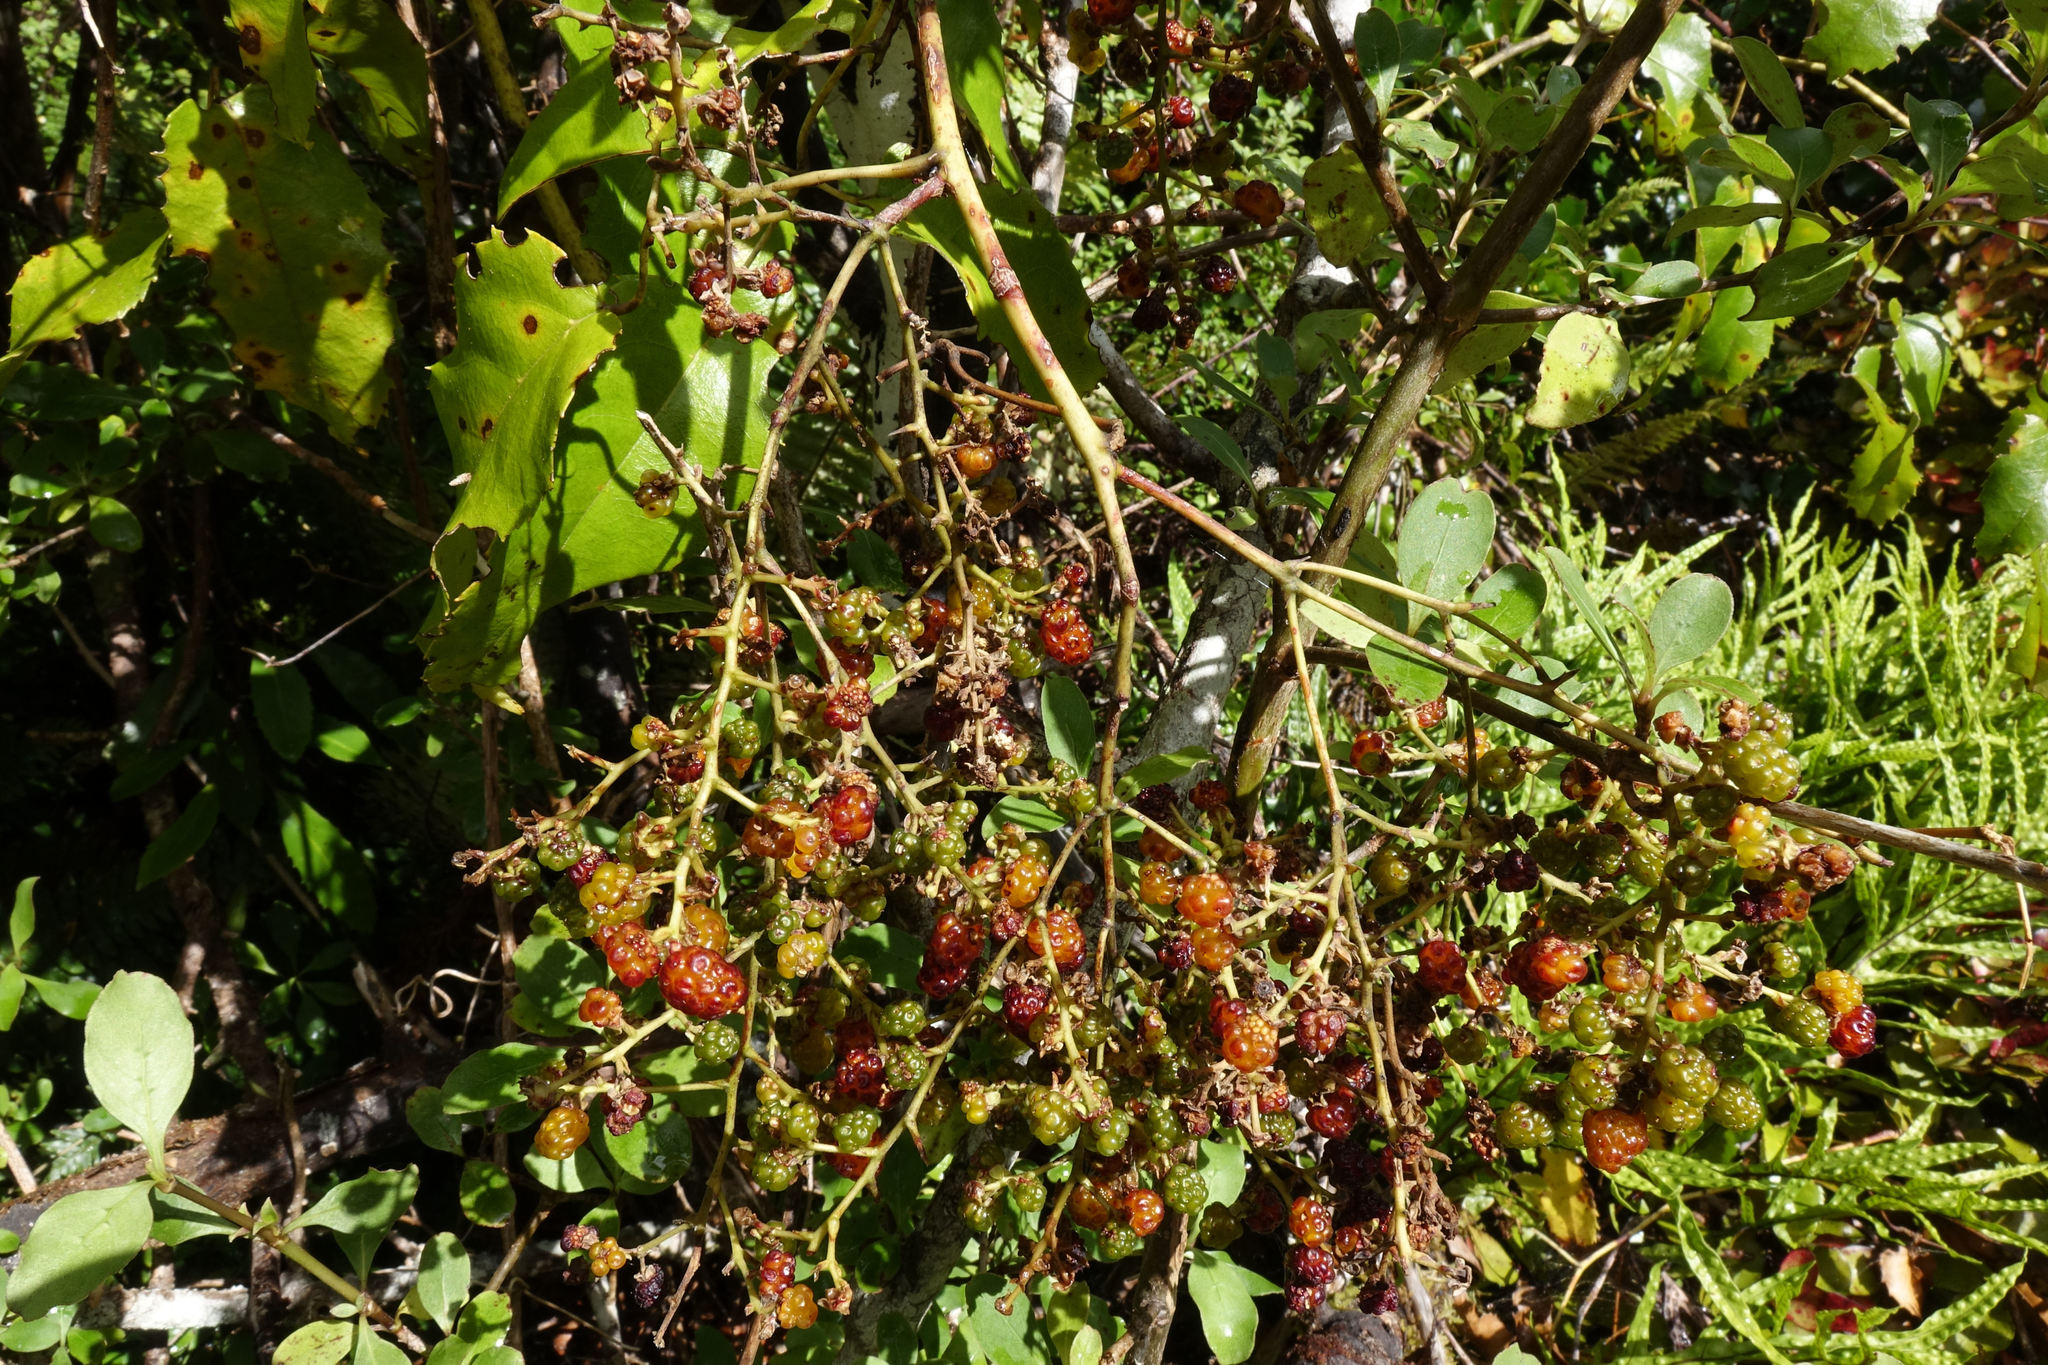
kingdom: Plantae
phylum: Tracheophyta
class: Magnoliopsida
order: Rosales
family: Rosaceae
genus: Rubus
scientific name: Rubus cissoides
